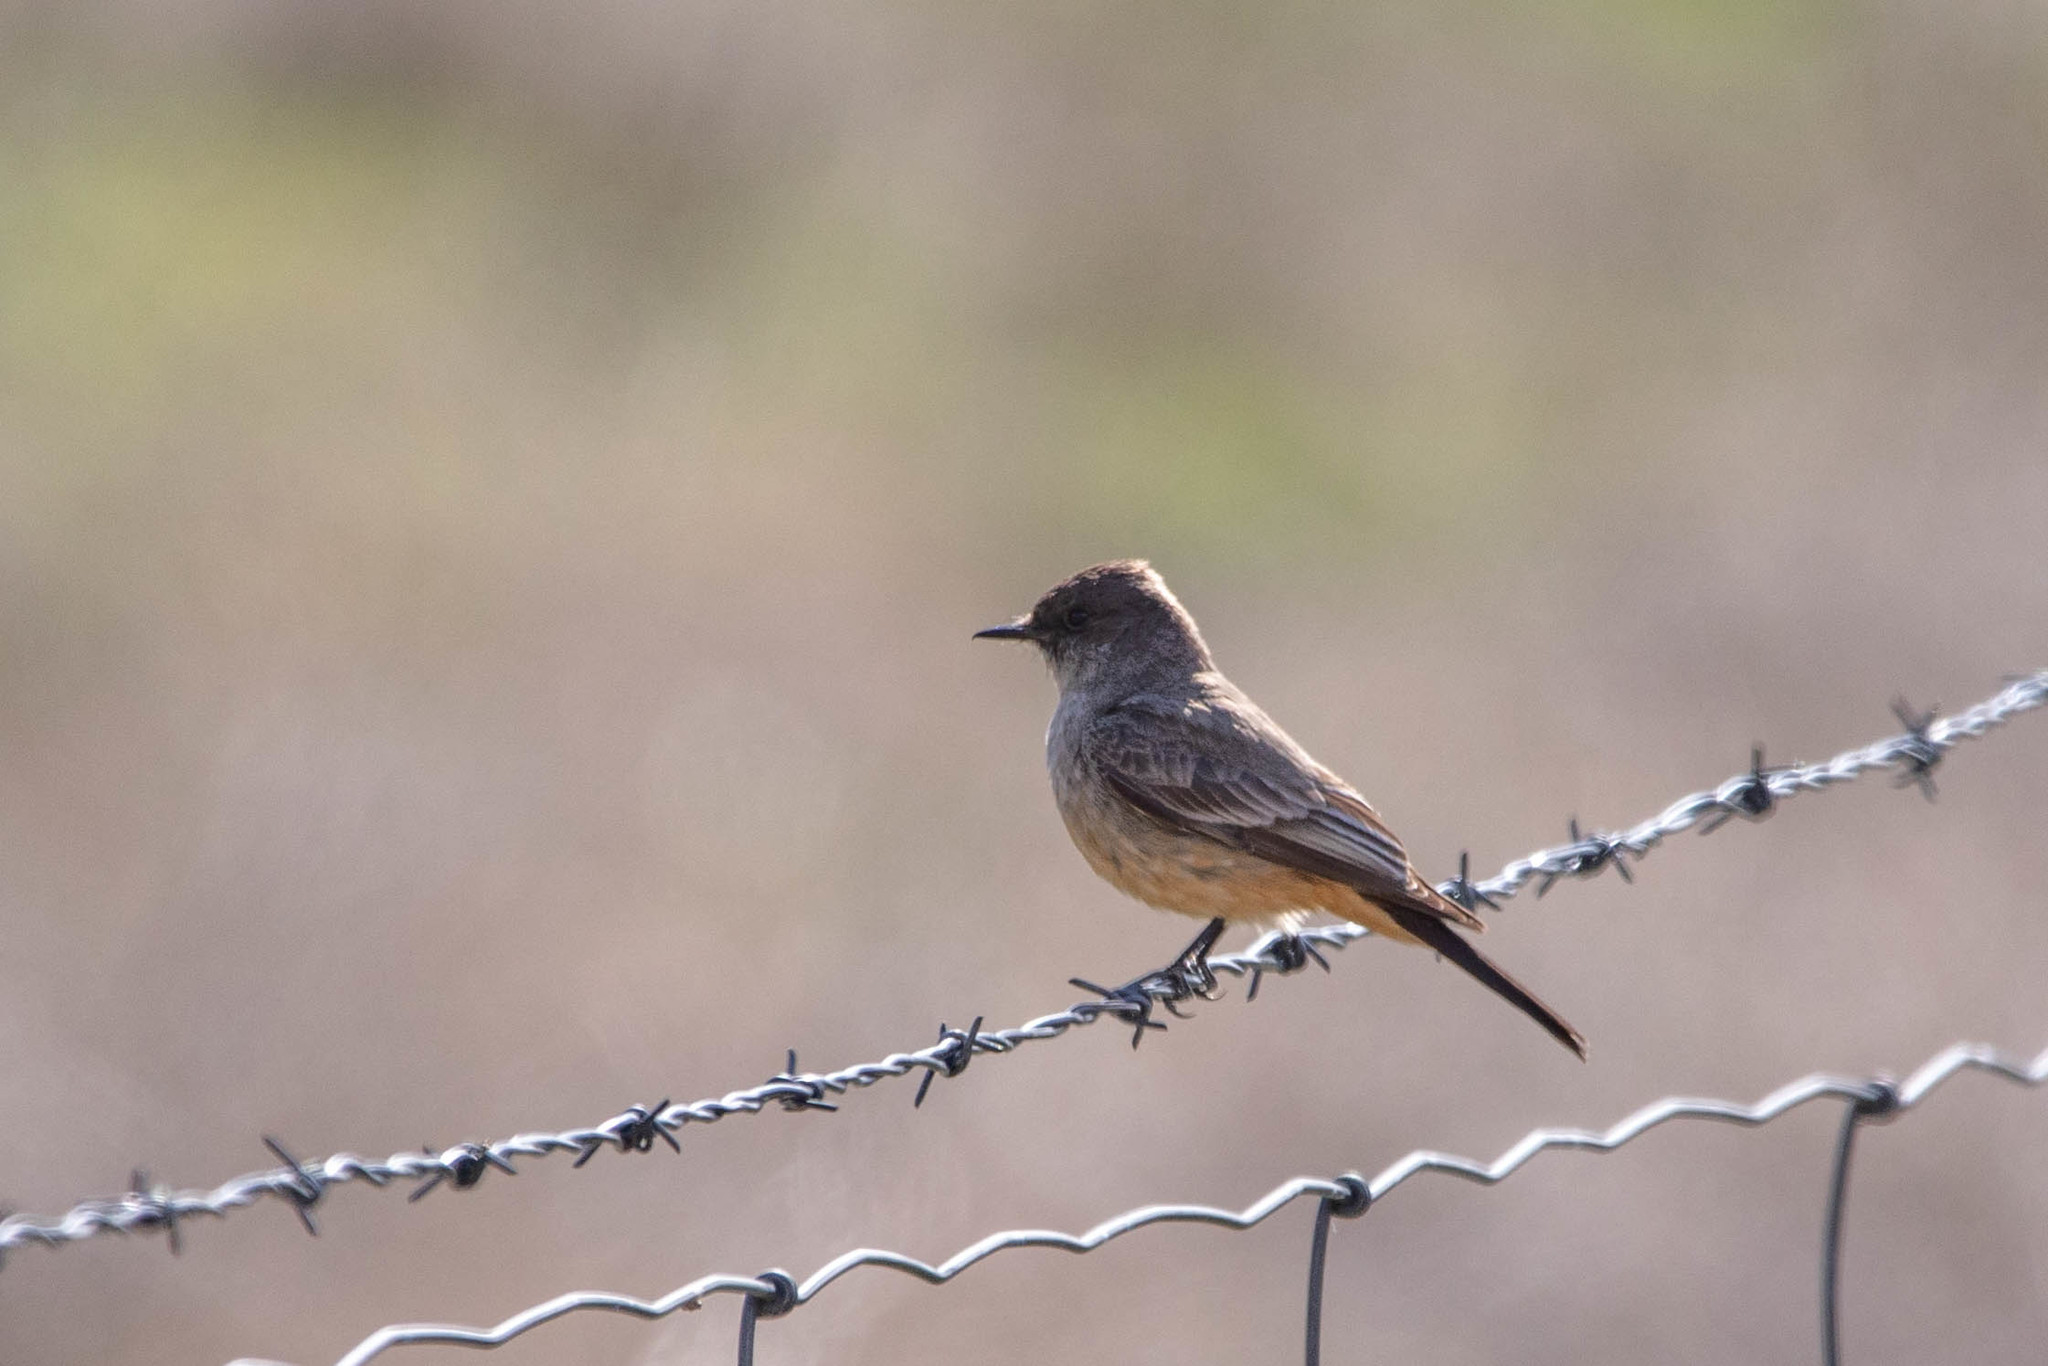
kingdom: Animalia
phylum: Chordata
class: Aves
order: Passeriformes
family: Tyrannidae
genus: Sayornis
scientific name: Sayornis saya
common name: Say's phoebe
